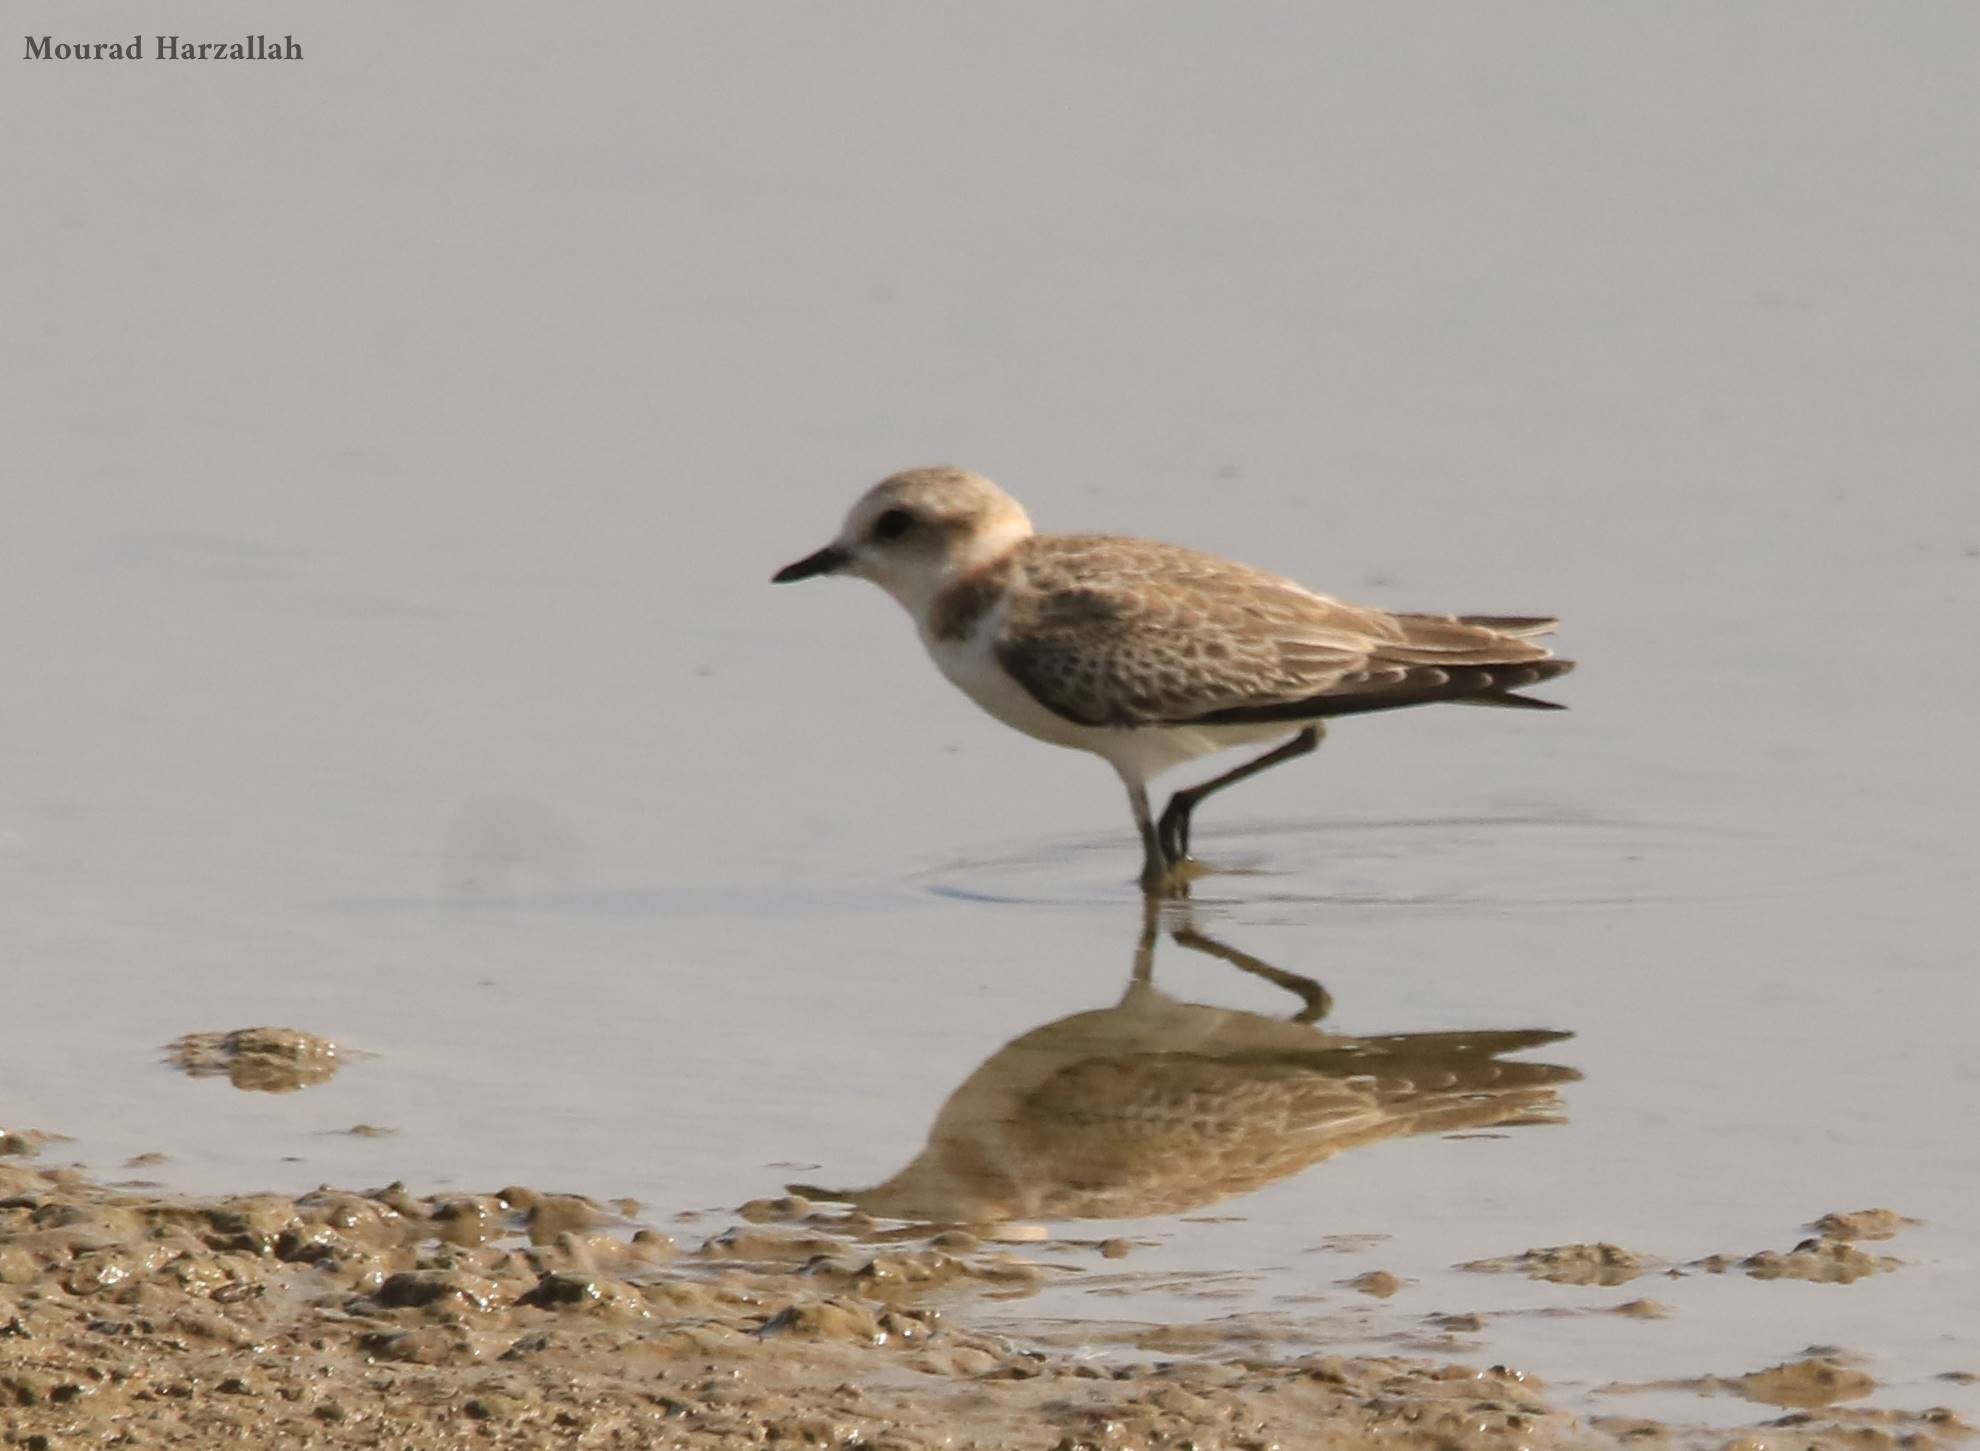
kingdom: Animalia
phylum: Chordata
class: Aves
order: Charadriiformes
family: Charadriidae
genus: Charadrius
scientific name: Charadrius alexandrinus
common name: Kentish plover
